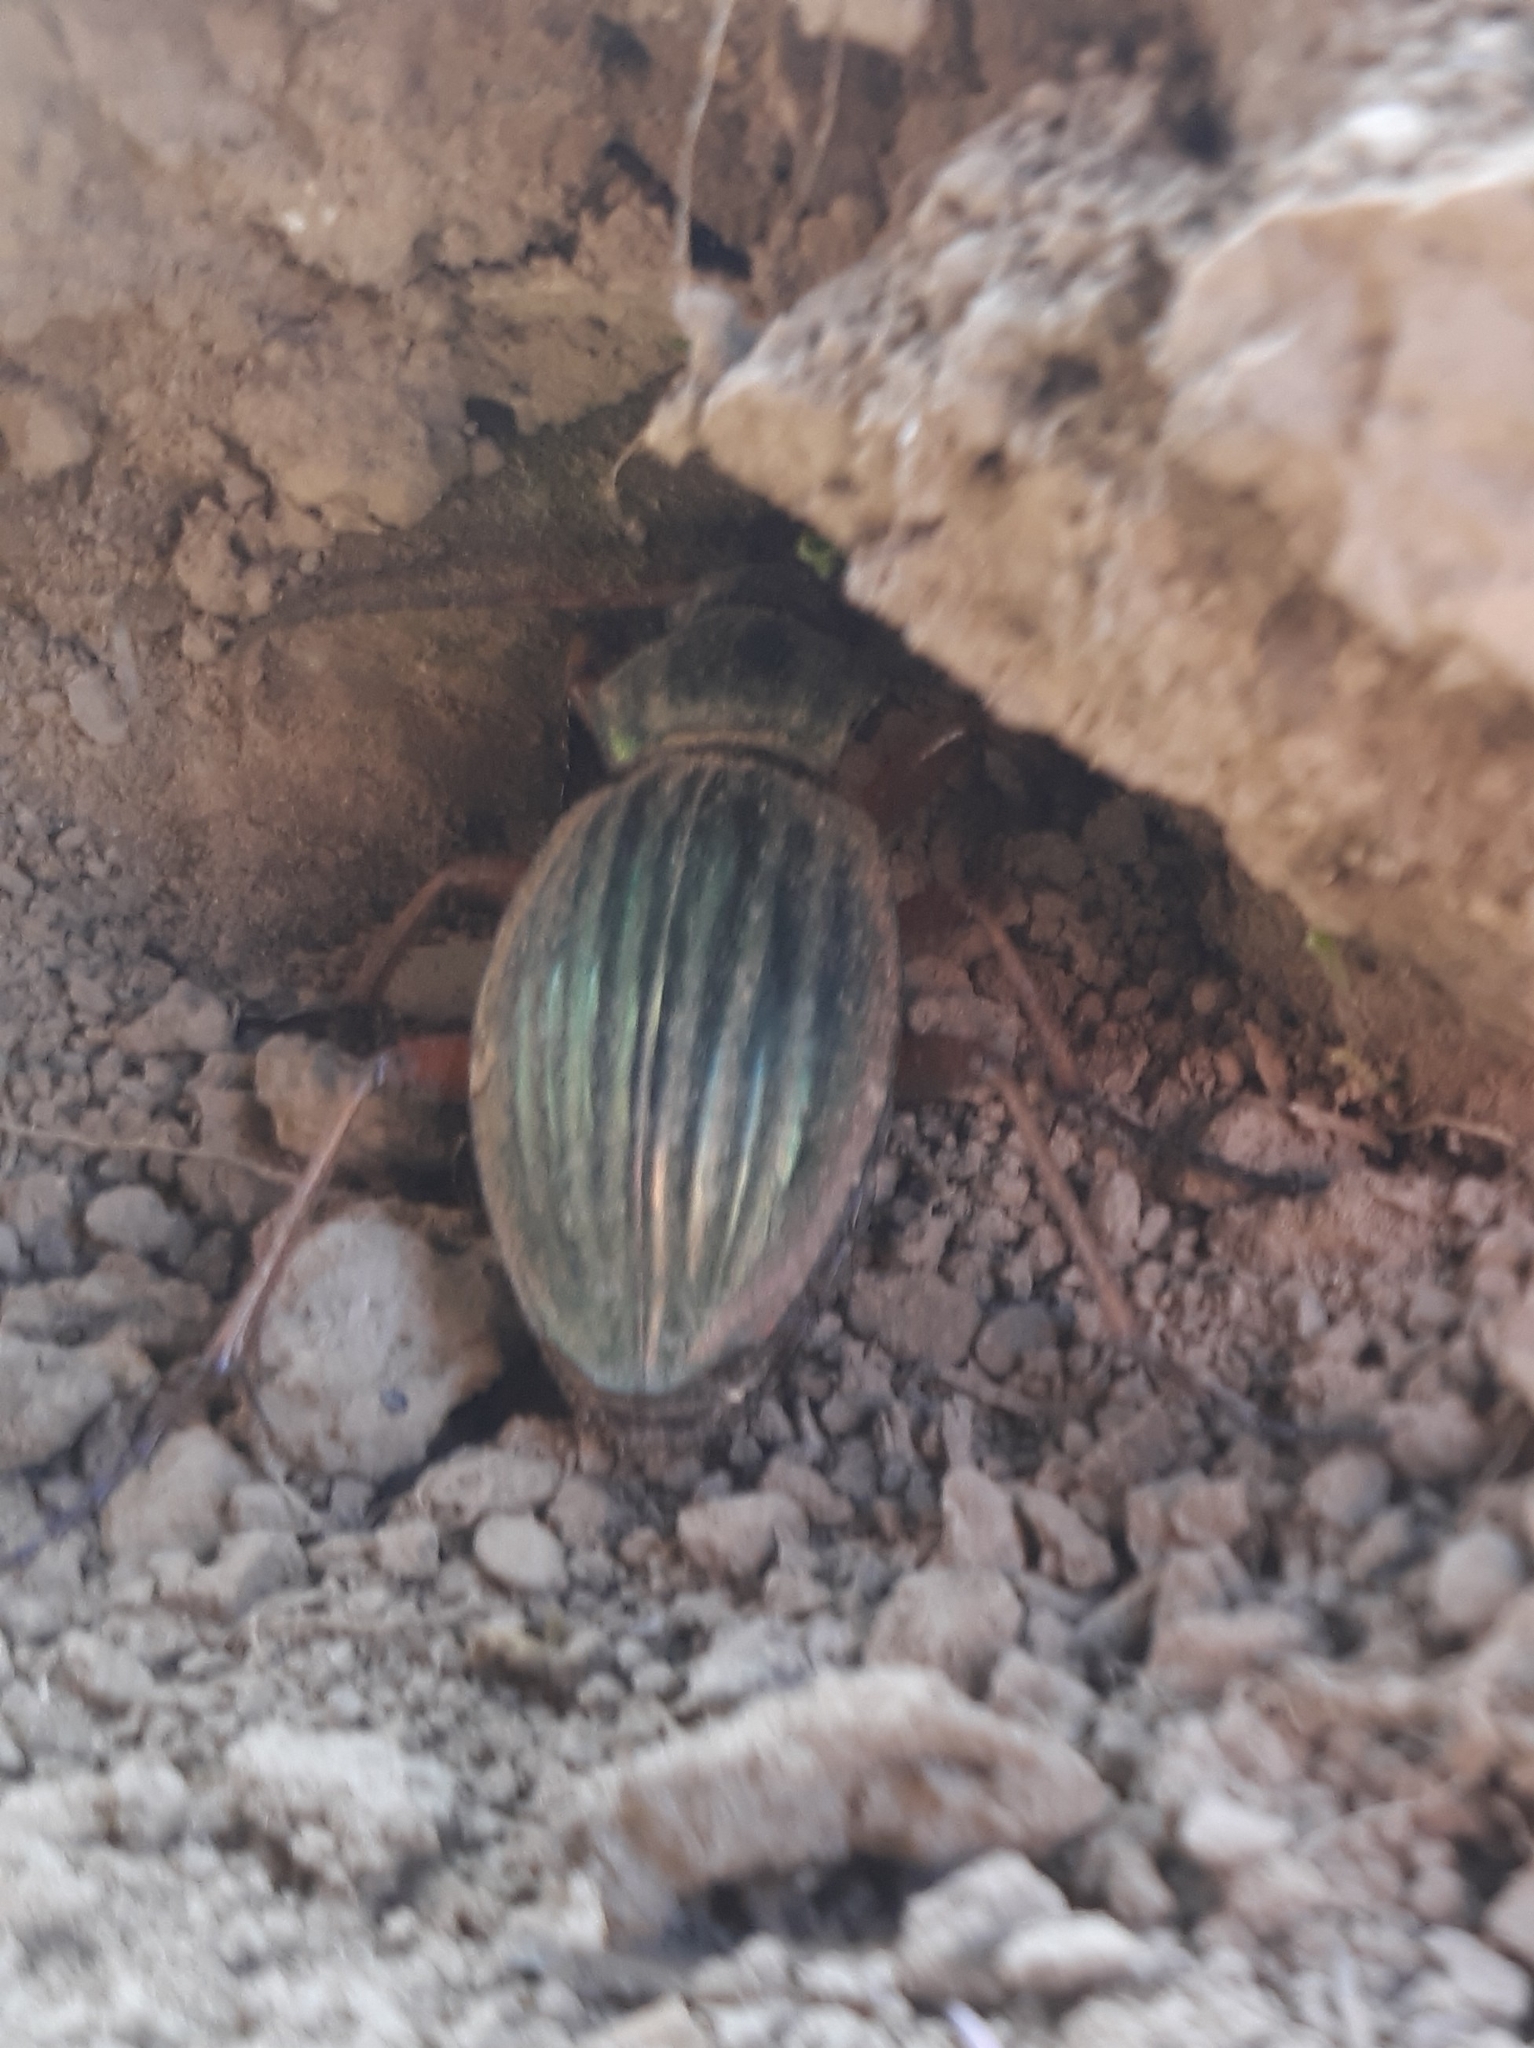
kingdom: Animalia
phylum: Arthropoda
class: Insecta
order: Coleoptera
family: Carabidae
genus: Carabus
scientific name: Carabus auratus
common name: Golden ground beetle
